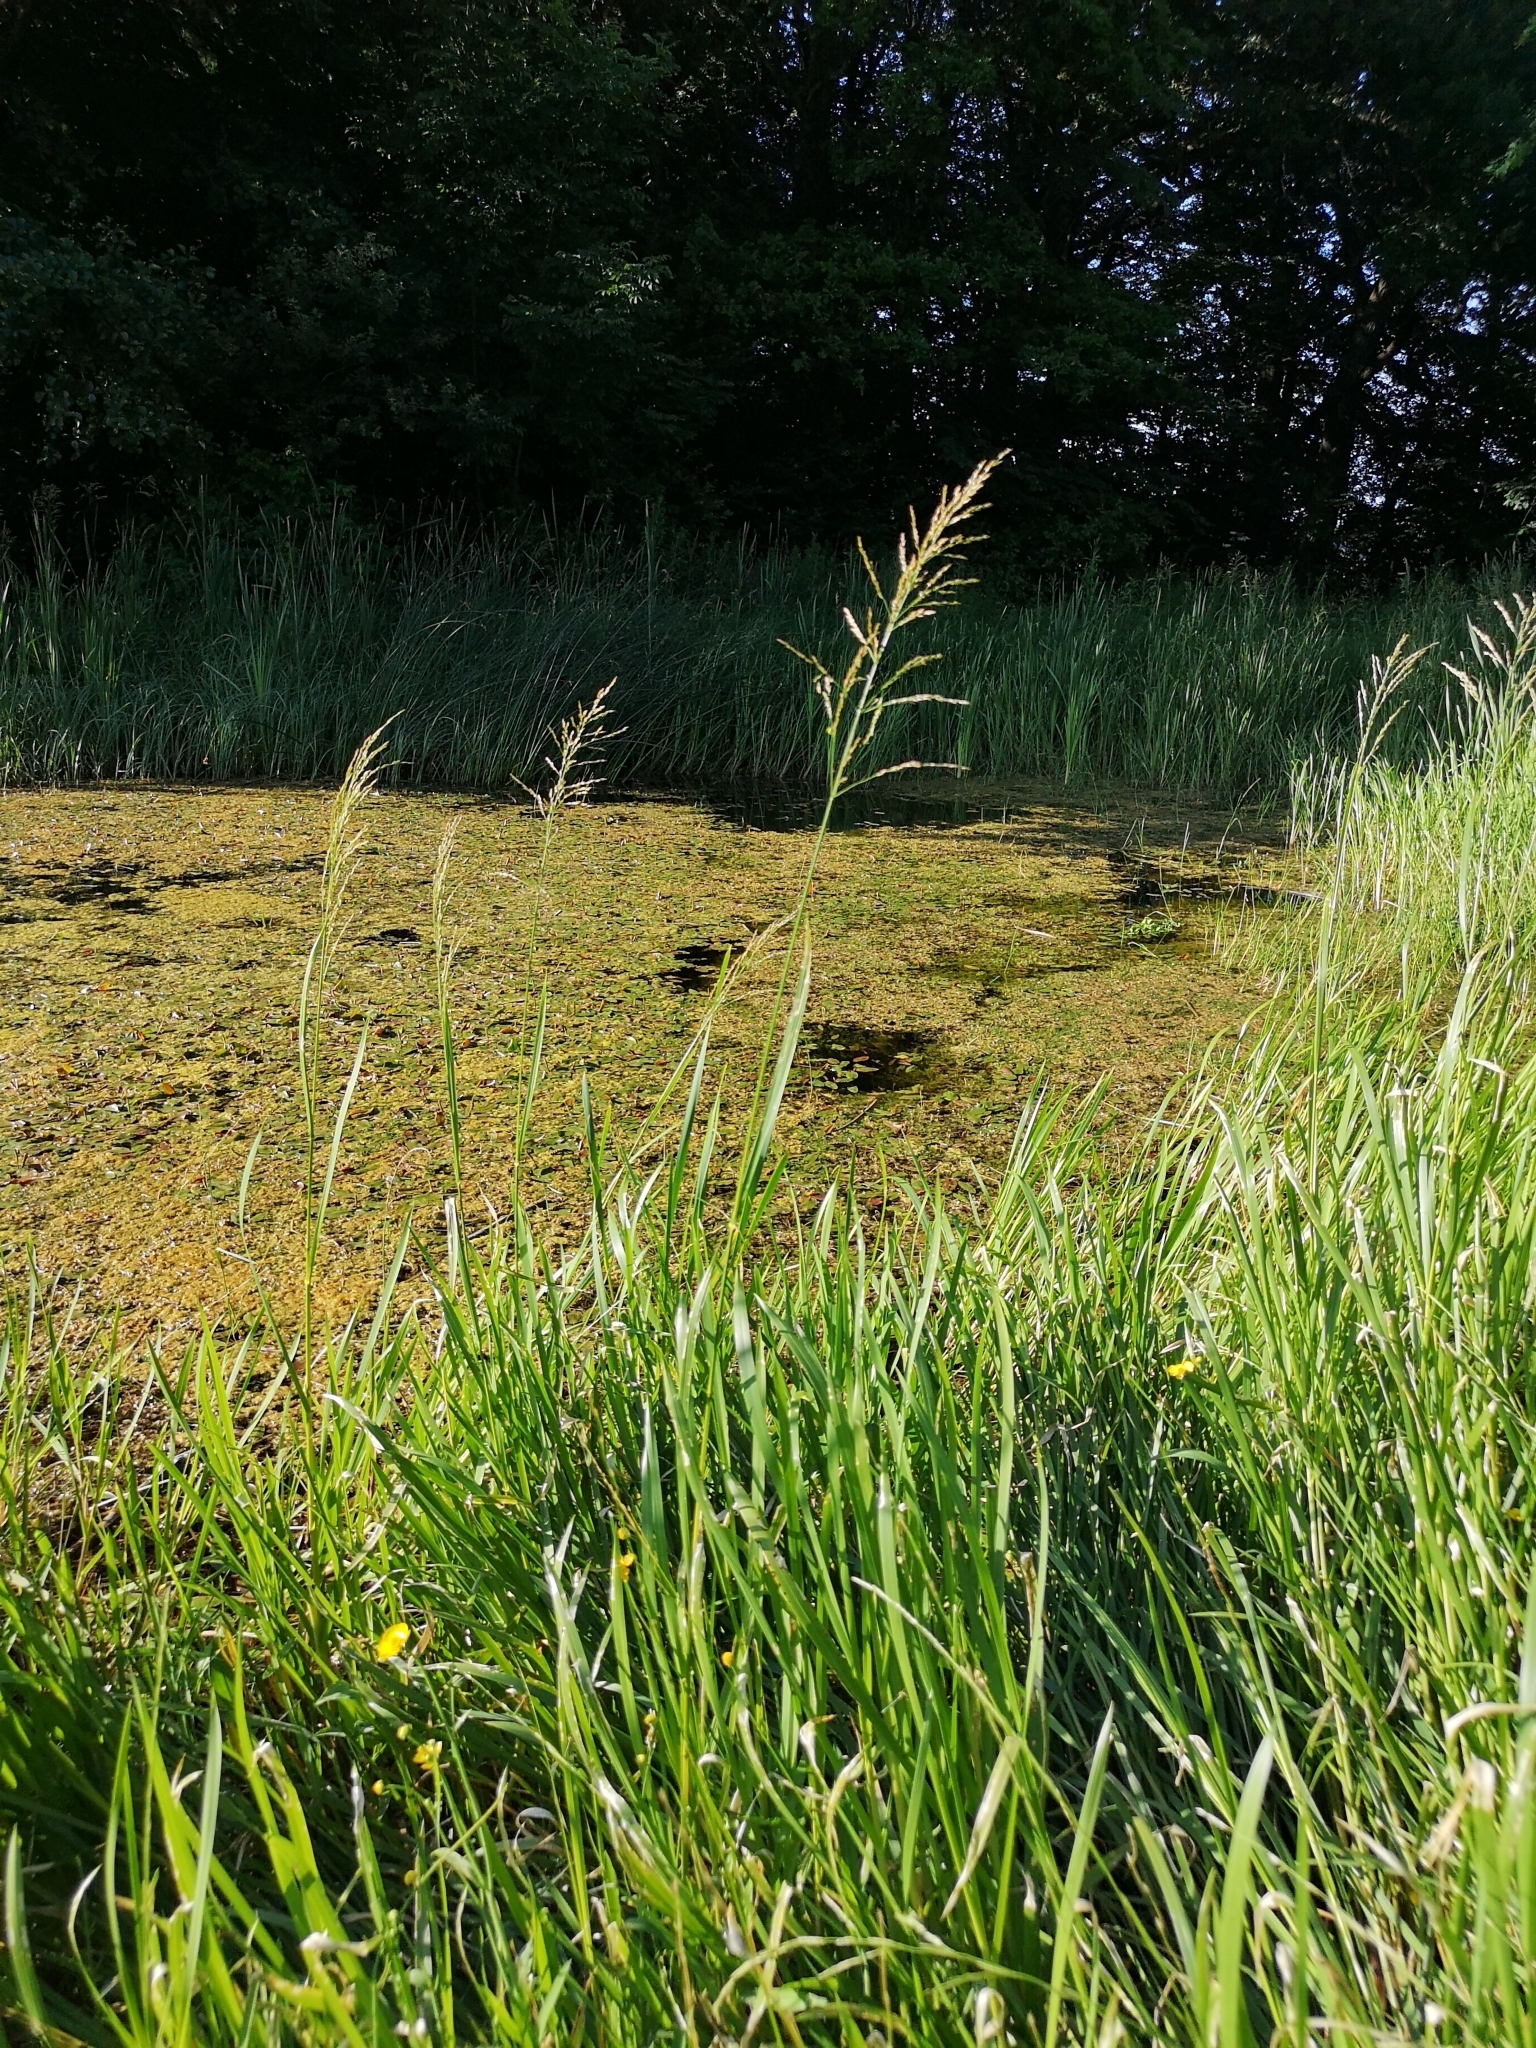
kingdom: Plantae
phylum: Tracheophyta
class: Liliopsida
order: Poales
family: Poaceae
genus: Glyceria
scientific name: Glyceria maxima
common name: Reed mannagrass
